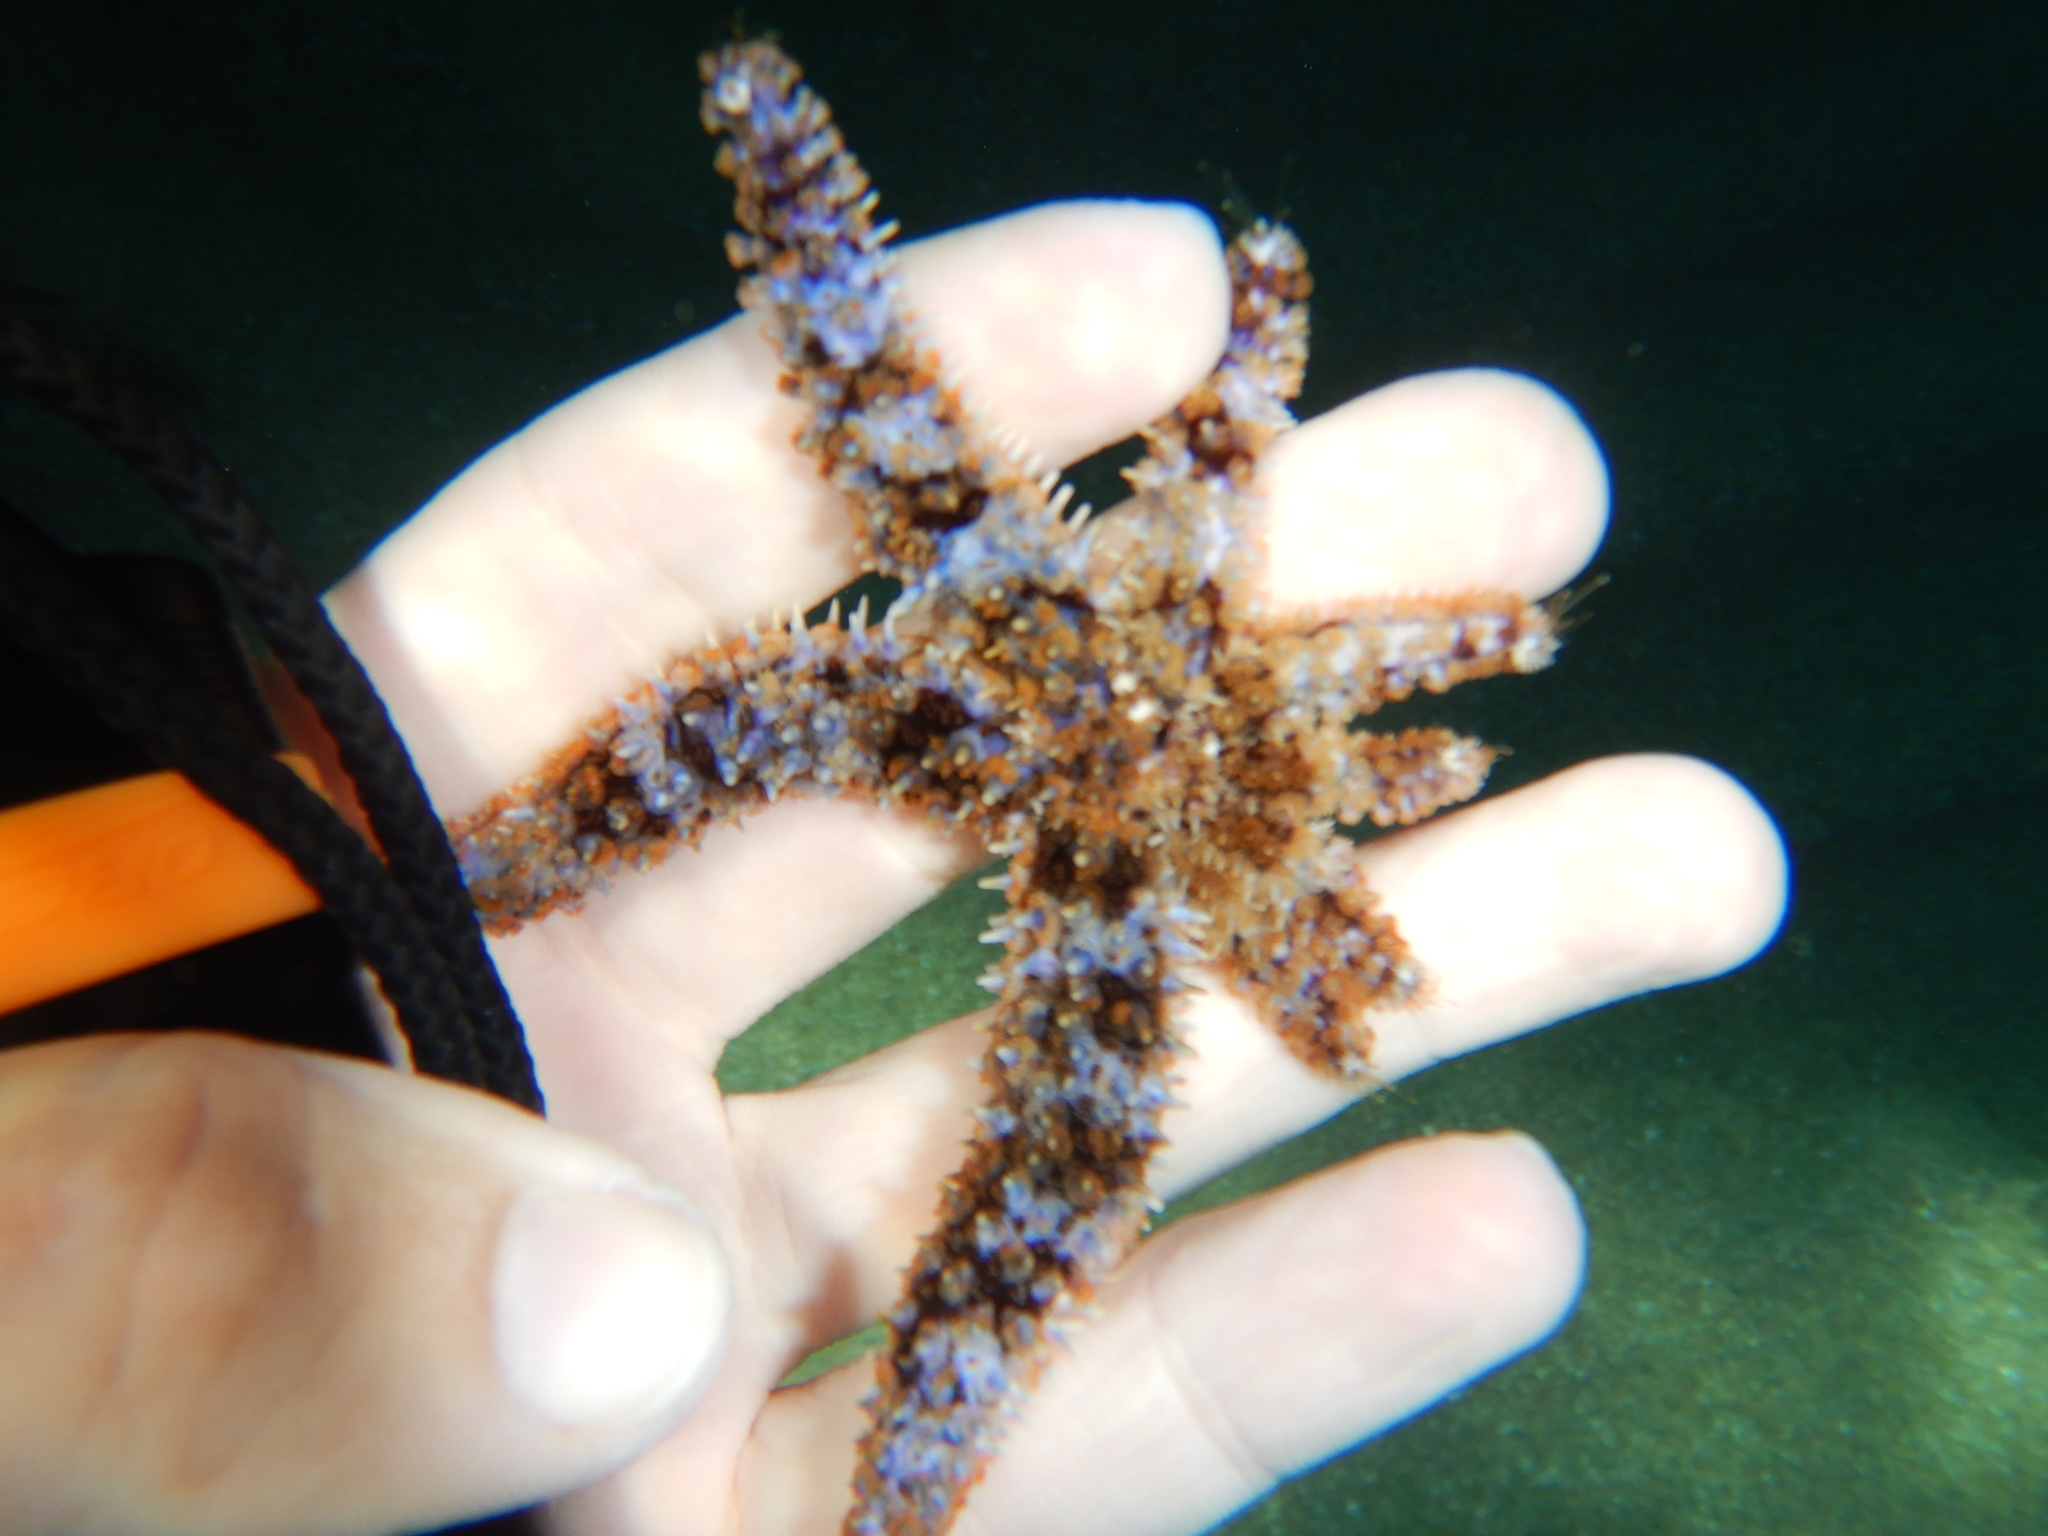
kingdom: Animalia
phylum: Echinodermata
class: Asteroidea
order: Forcipulatida
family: Asteriidae
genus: Coscinasterias
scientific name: Coscinasterias tenuispina
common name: Blue spiny starfish
